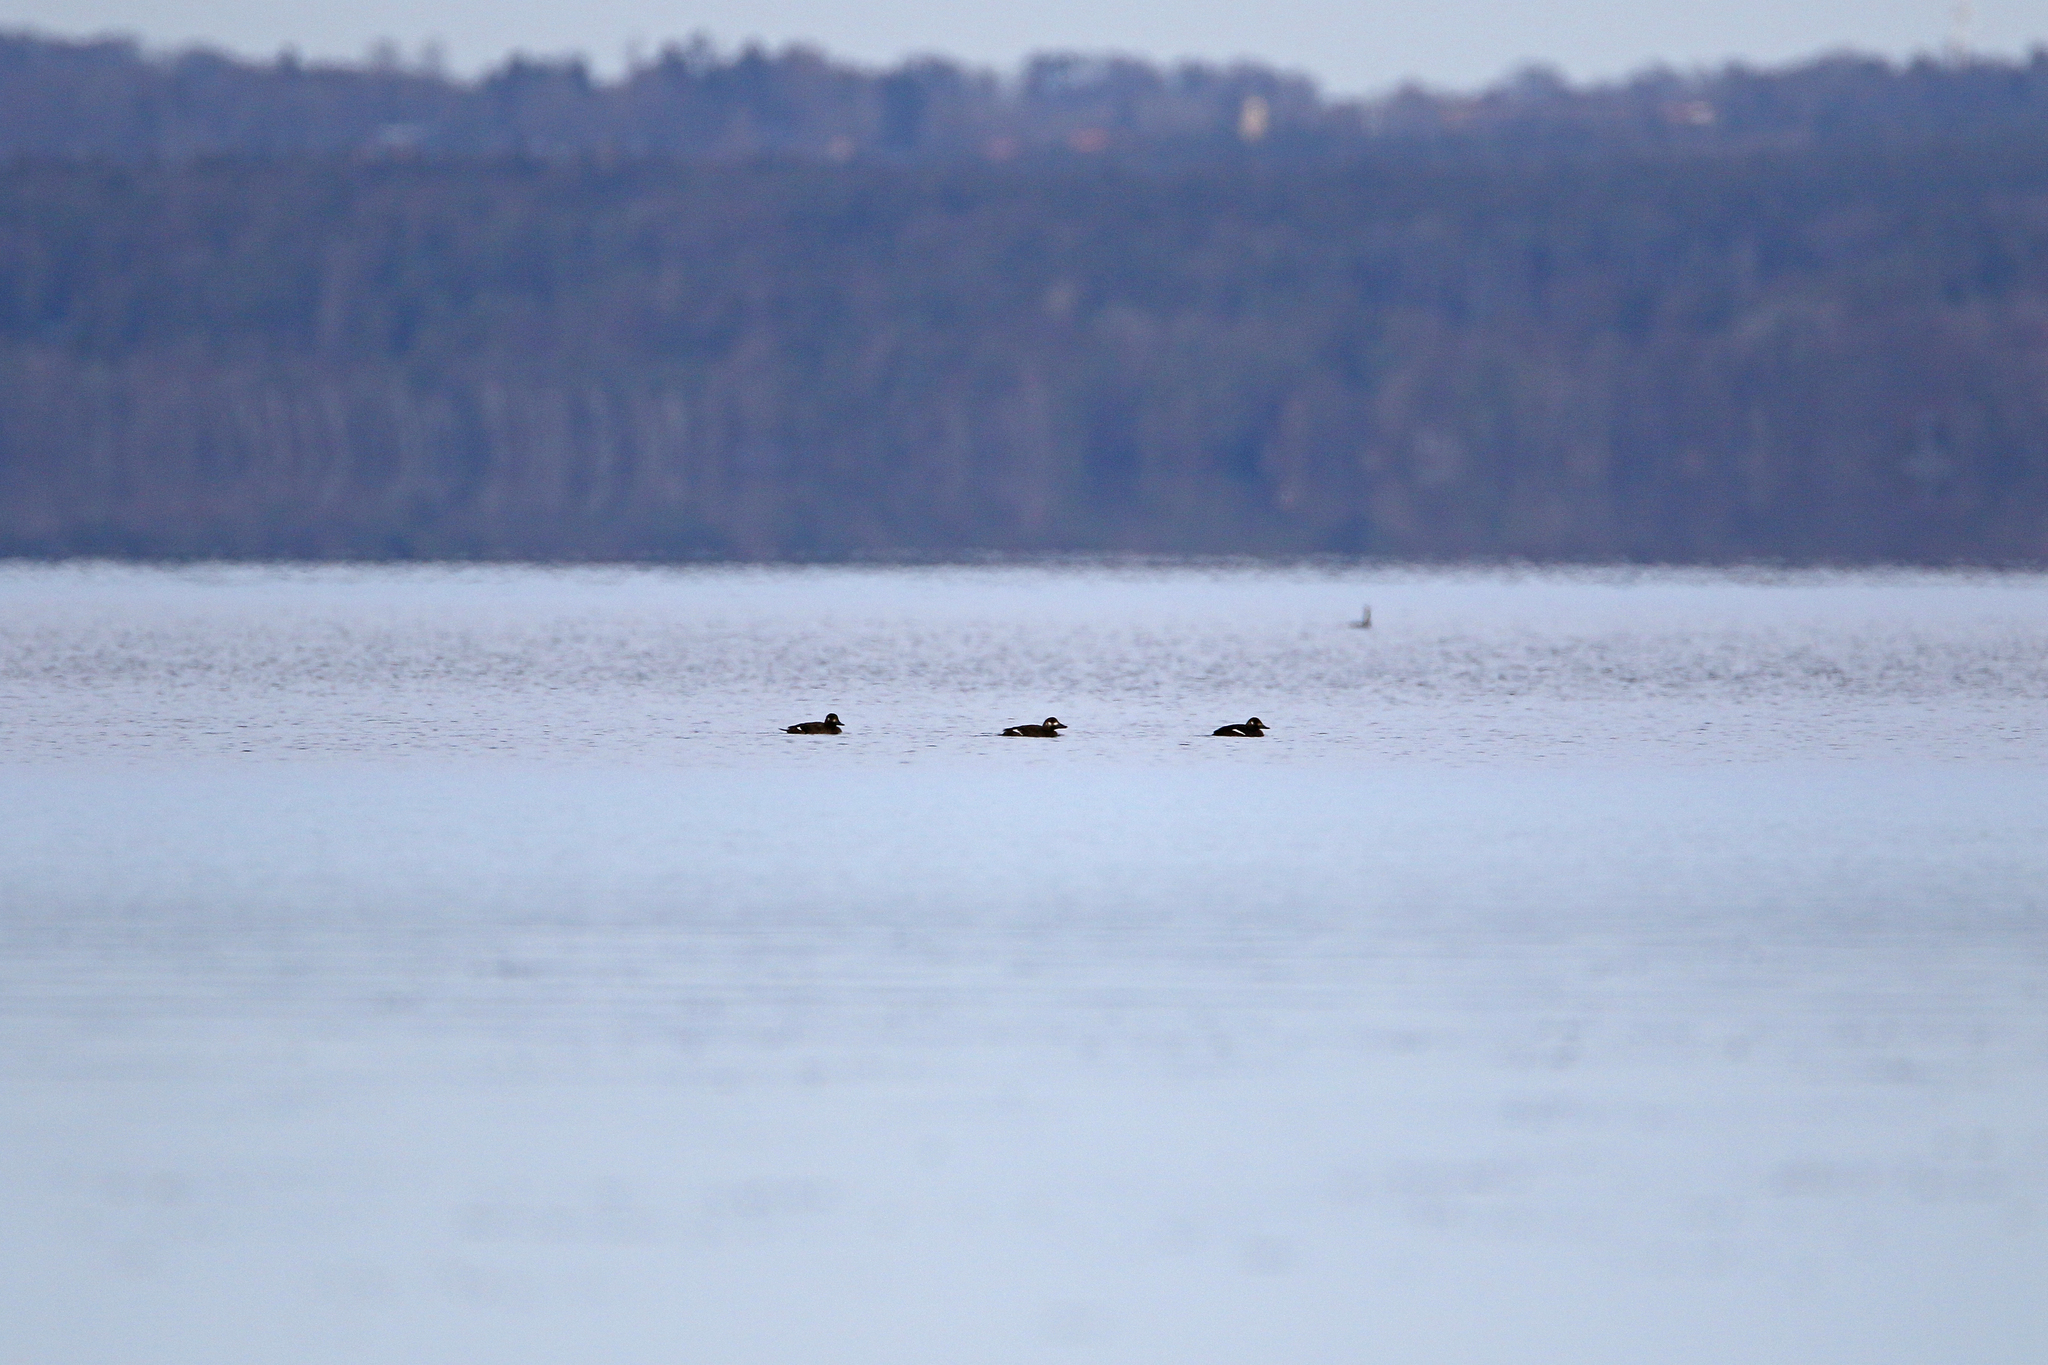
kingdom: Animalia
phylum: Chordata
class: Aves
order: Anseriformes
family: Anatidae
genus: Melanitta
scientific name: Melanitta fusca
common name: Velvet scoter
